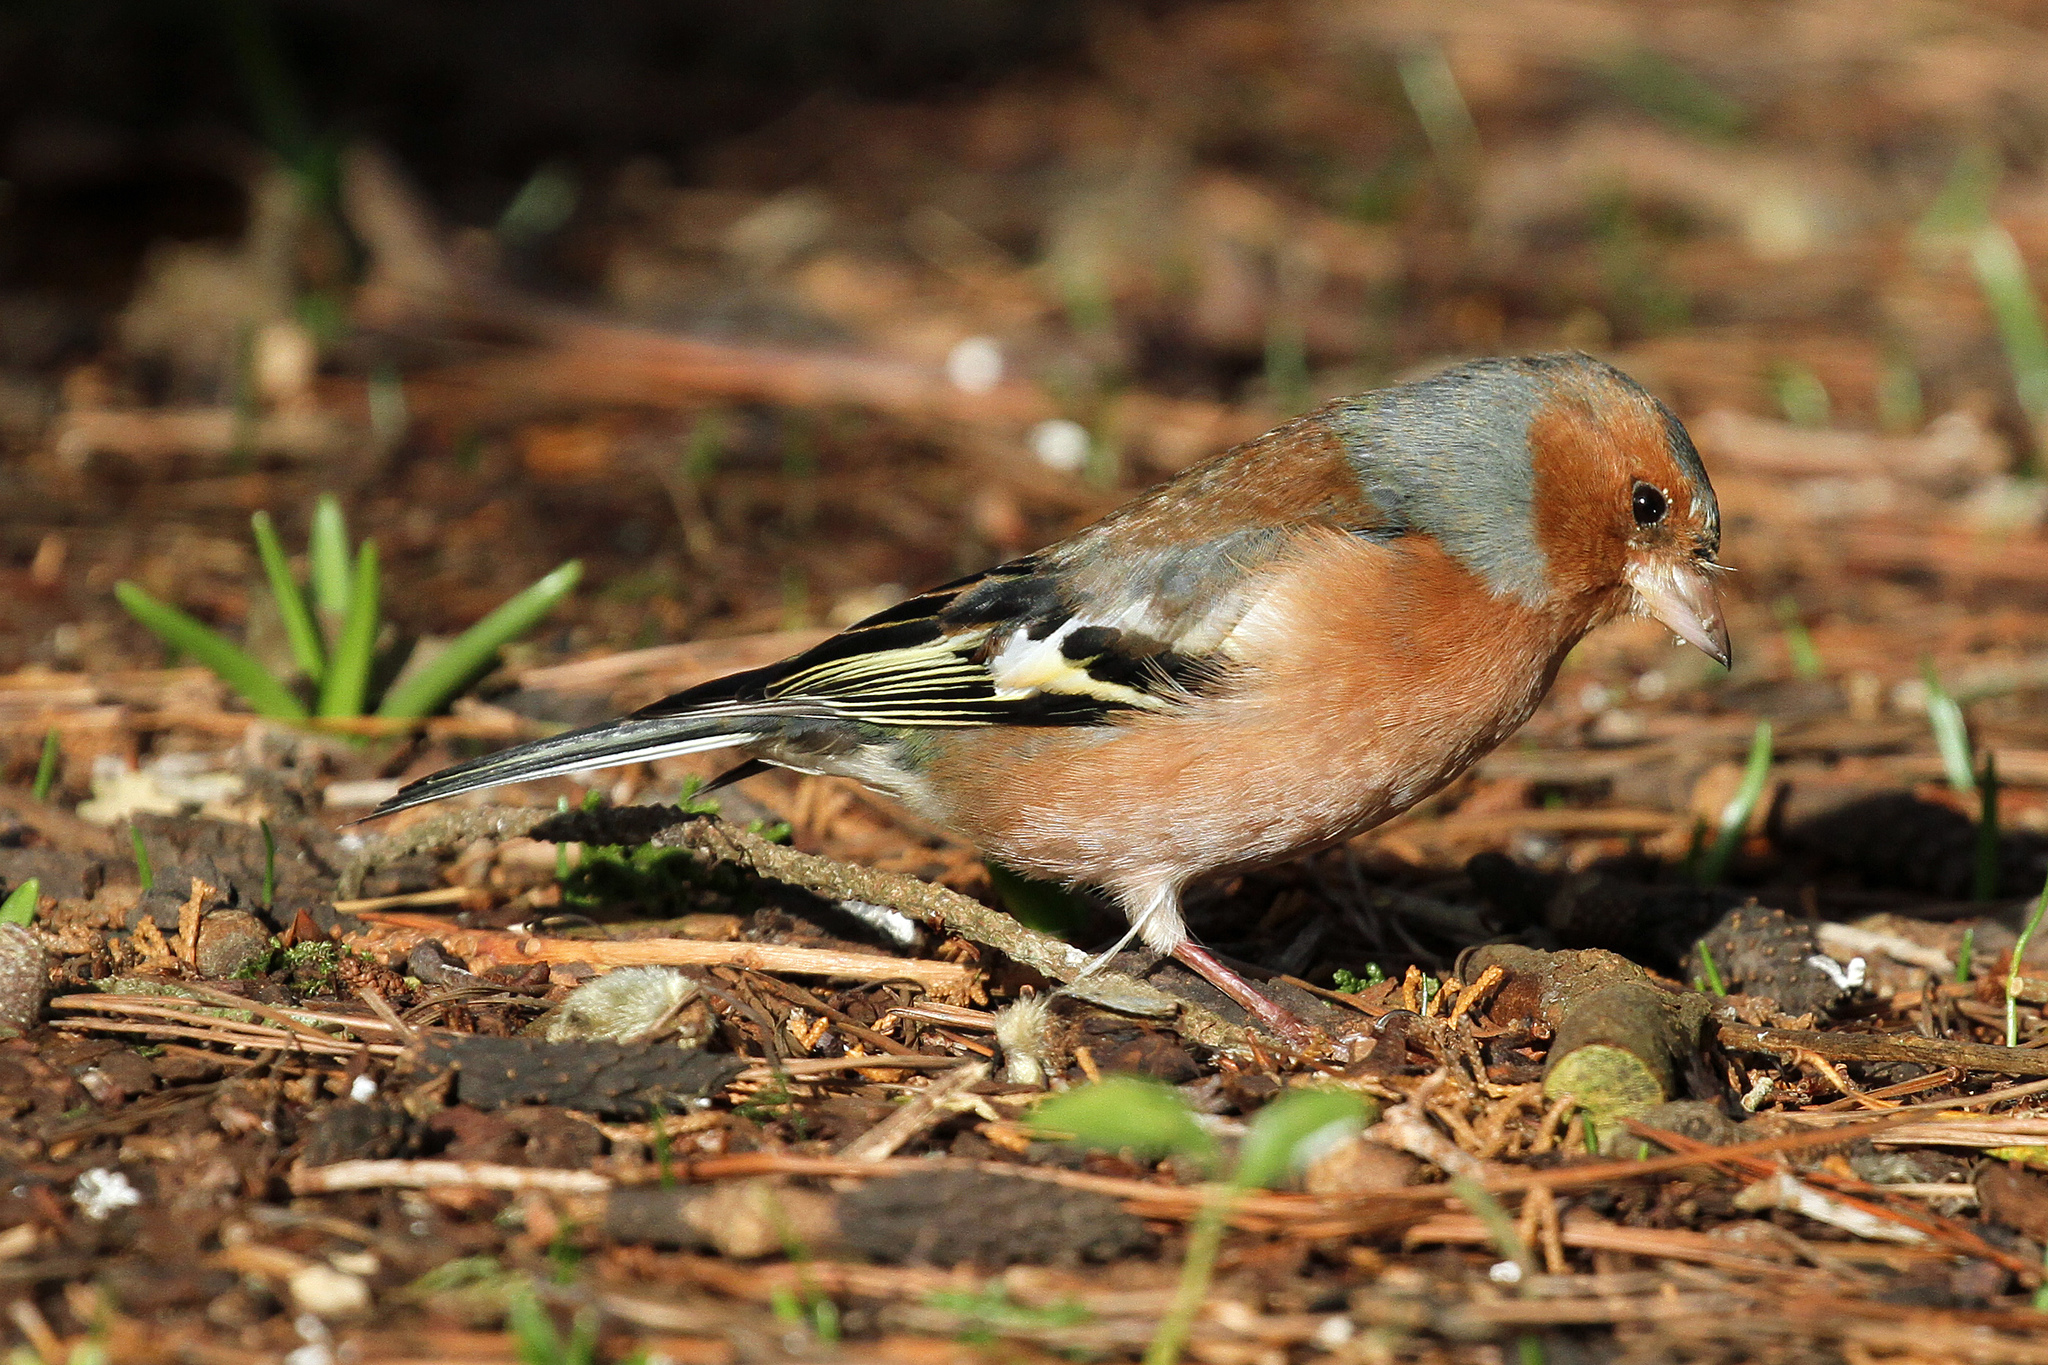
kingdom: Animalia
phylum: Chordata
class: Aves
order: Passeriformes
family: Fringillidae
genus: Fringilla
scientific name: Fringilla coelebs
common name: Common chaffinch
